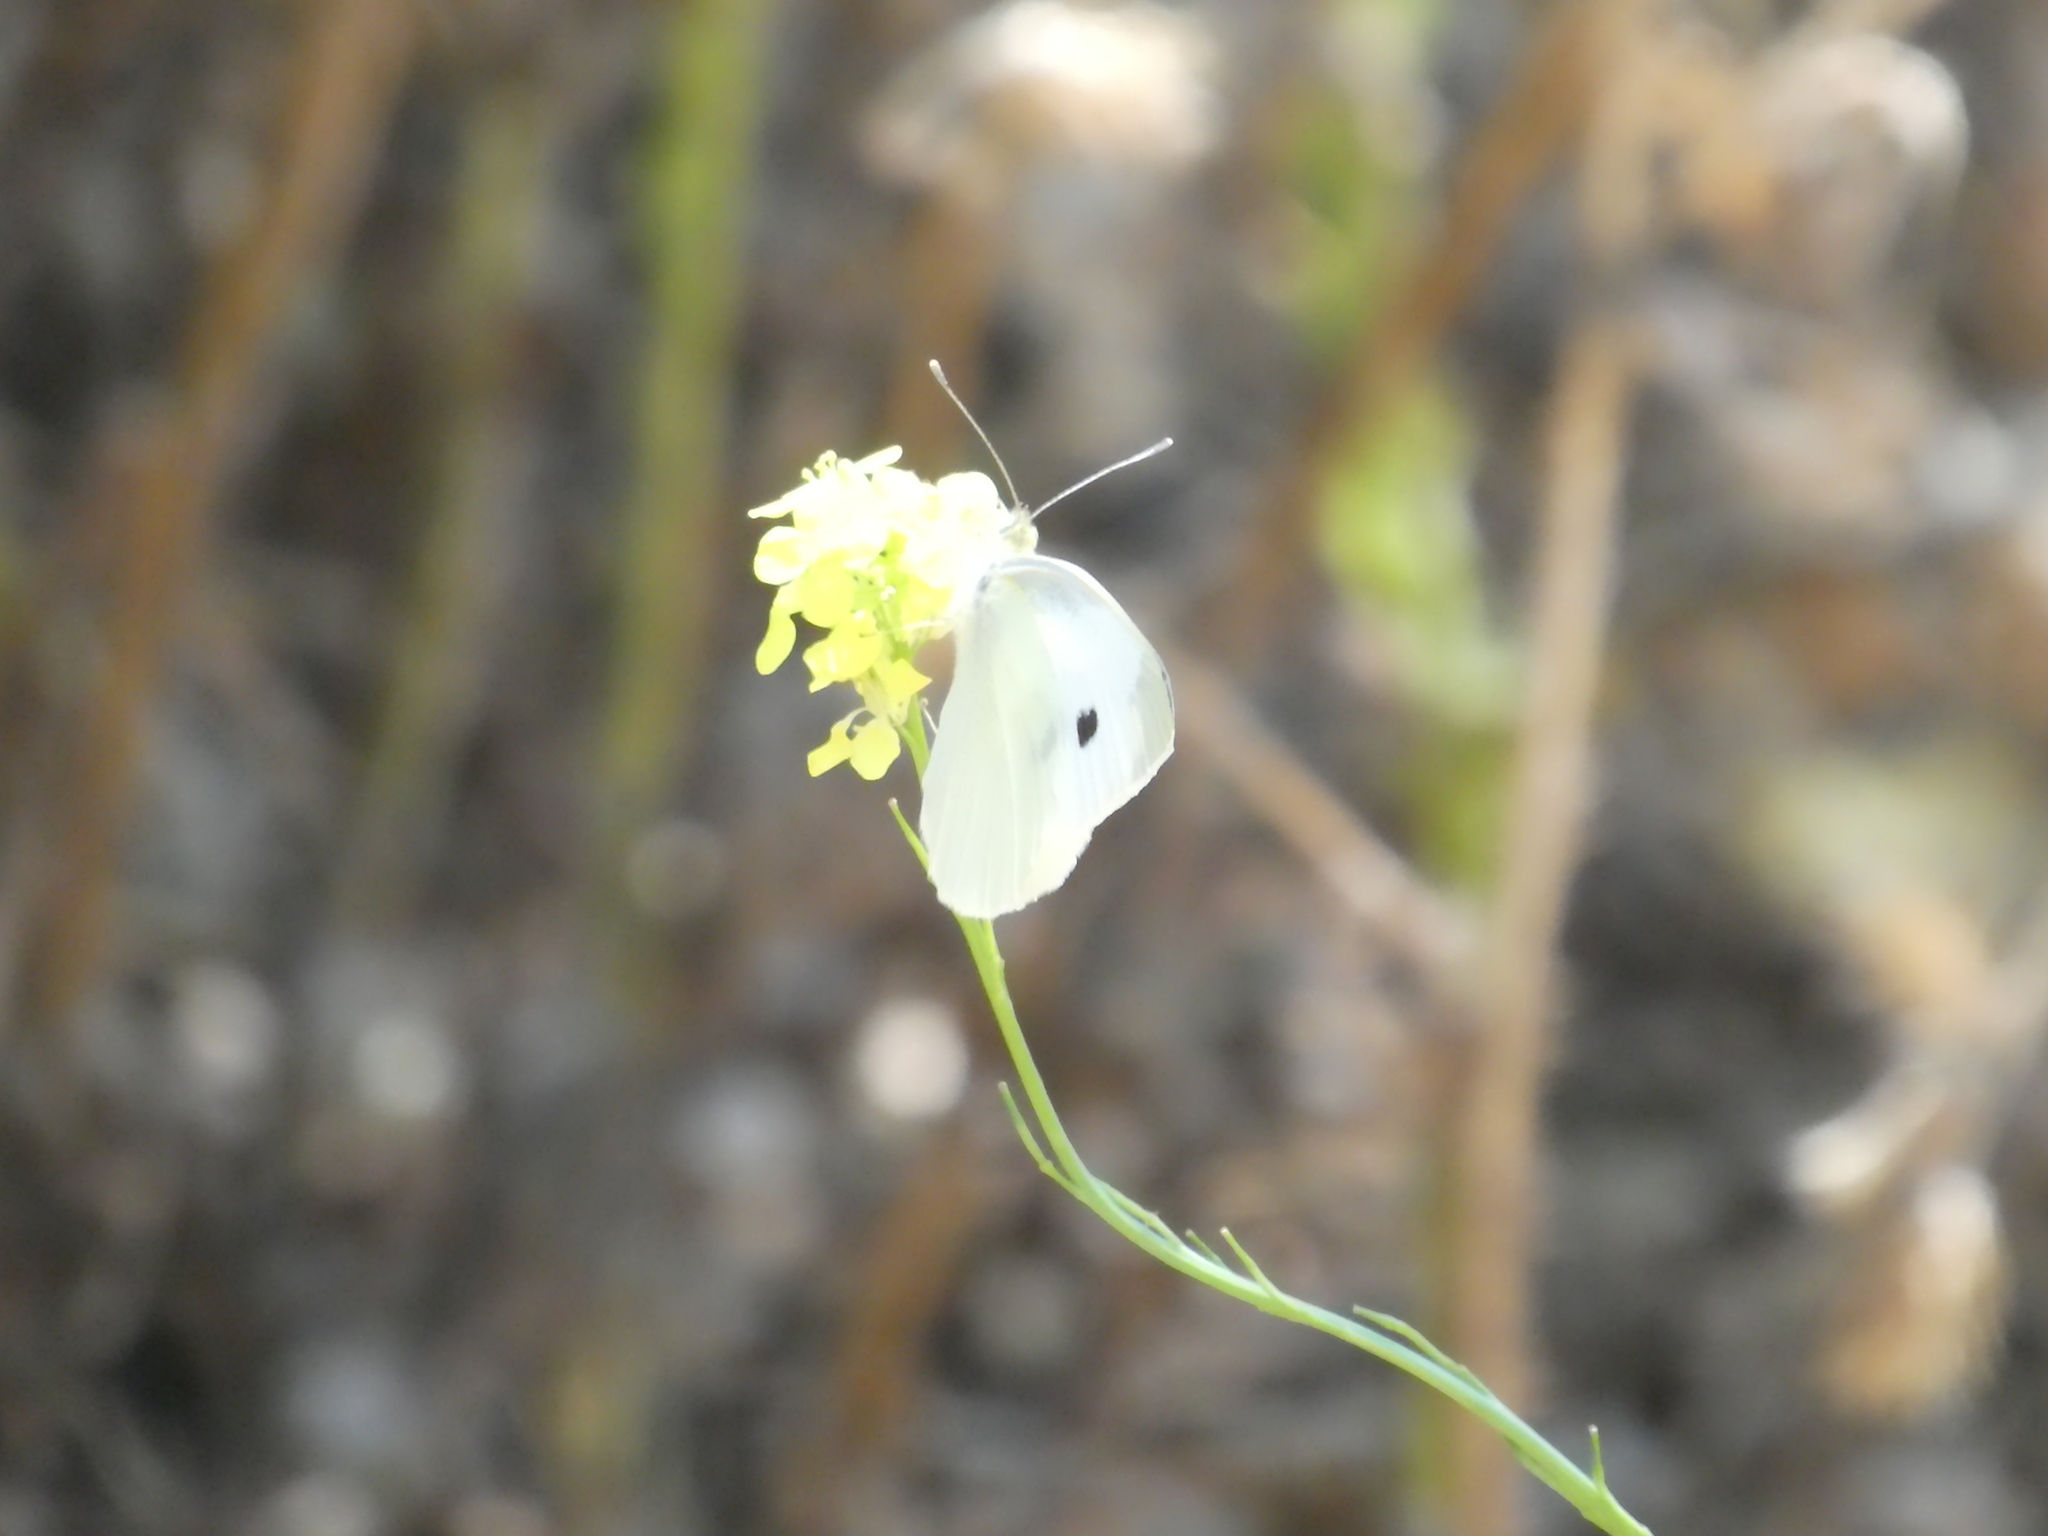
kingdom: Animalia
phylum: Arthropoda
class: Insecta
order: Lepidoptera
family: Pieridae
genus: Pieris
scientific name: Pieris rapae
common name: Small white
